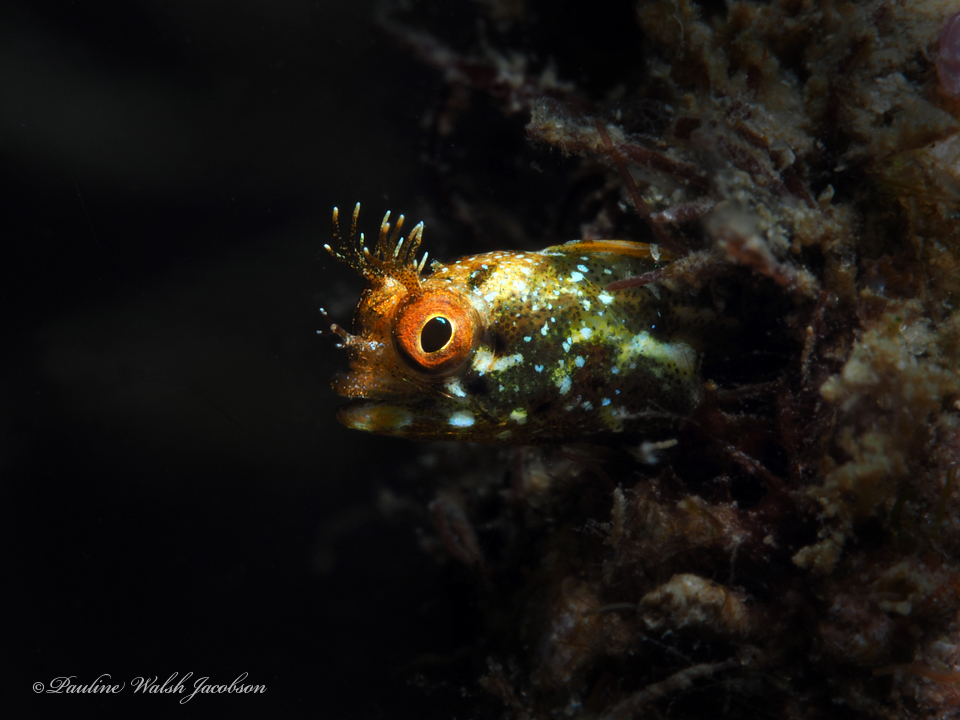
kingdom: Animalia
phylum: Chordata
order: Perciformes
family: Chaenopsidae
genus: Acanthemblemaria
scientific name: Acanthemblemaria aspera
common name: Roughhead blenny
